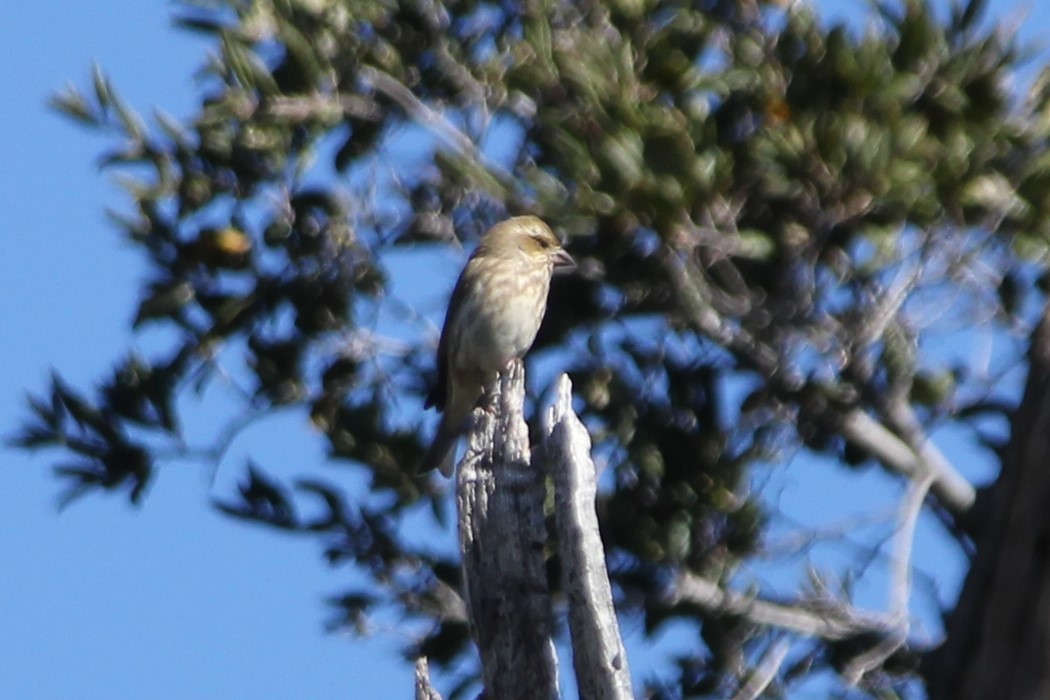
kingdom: Animalia
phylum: Chordata
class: Aves
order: Passeriformes
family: Fringillidae
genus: Haemorhous
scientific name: Haemorhous purpureus
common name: Purple finch
